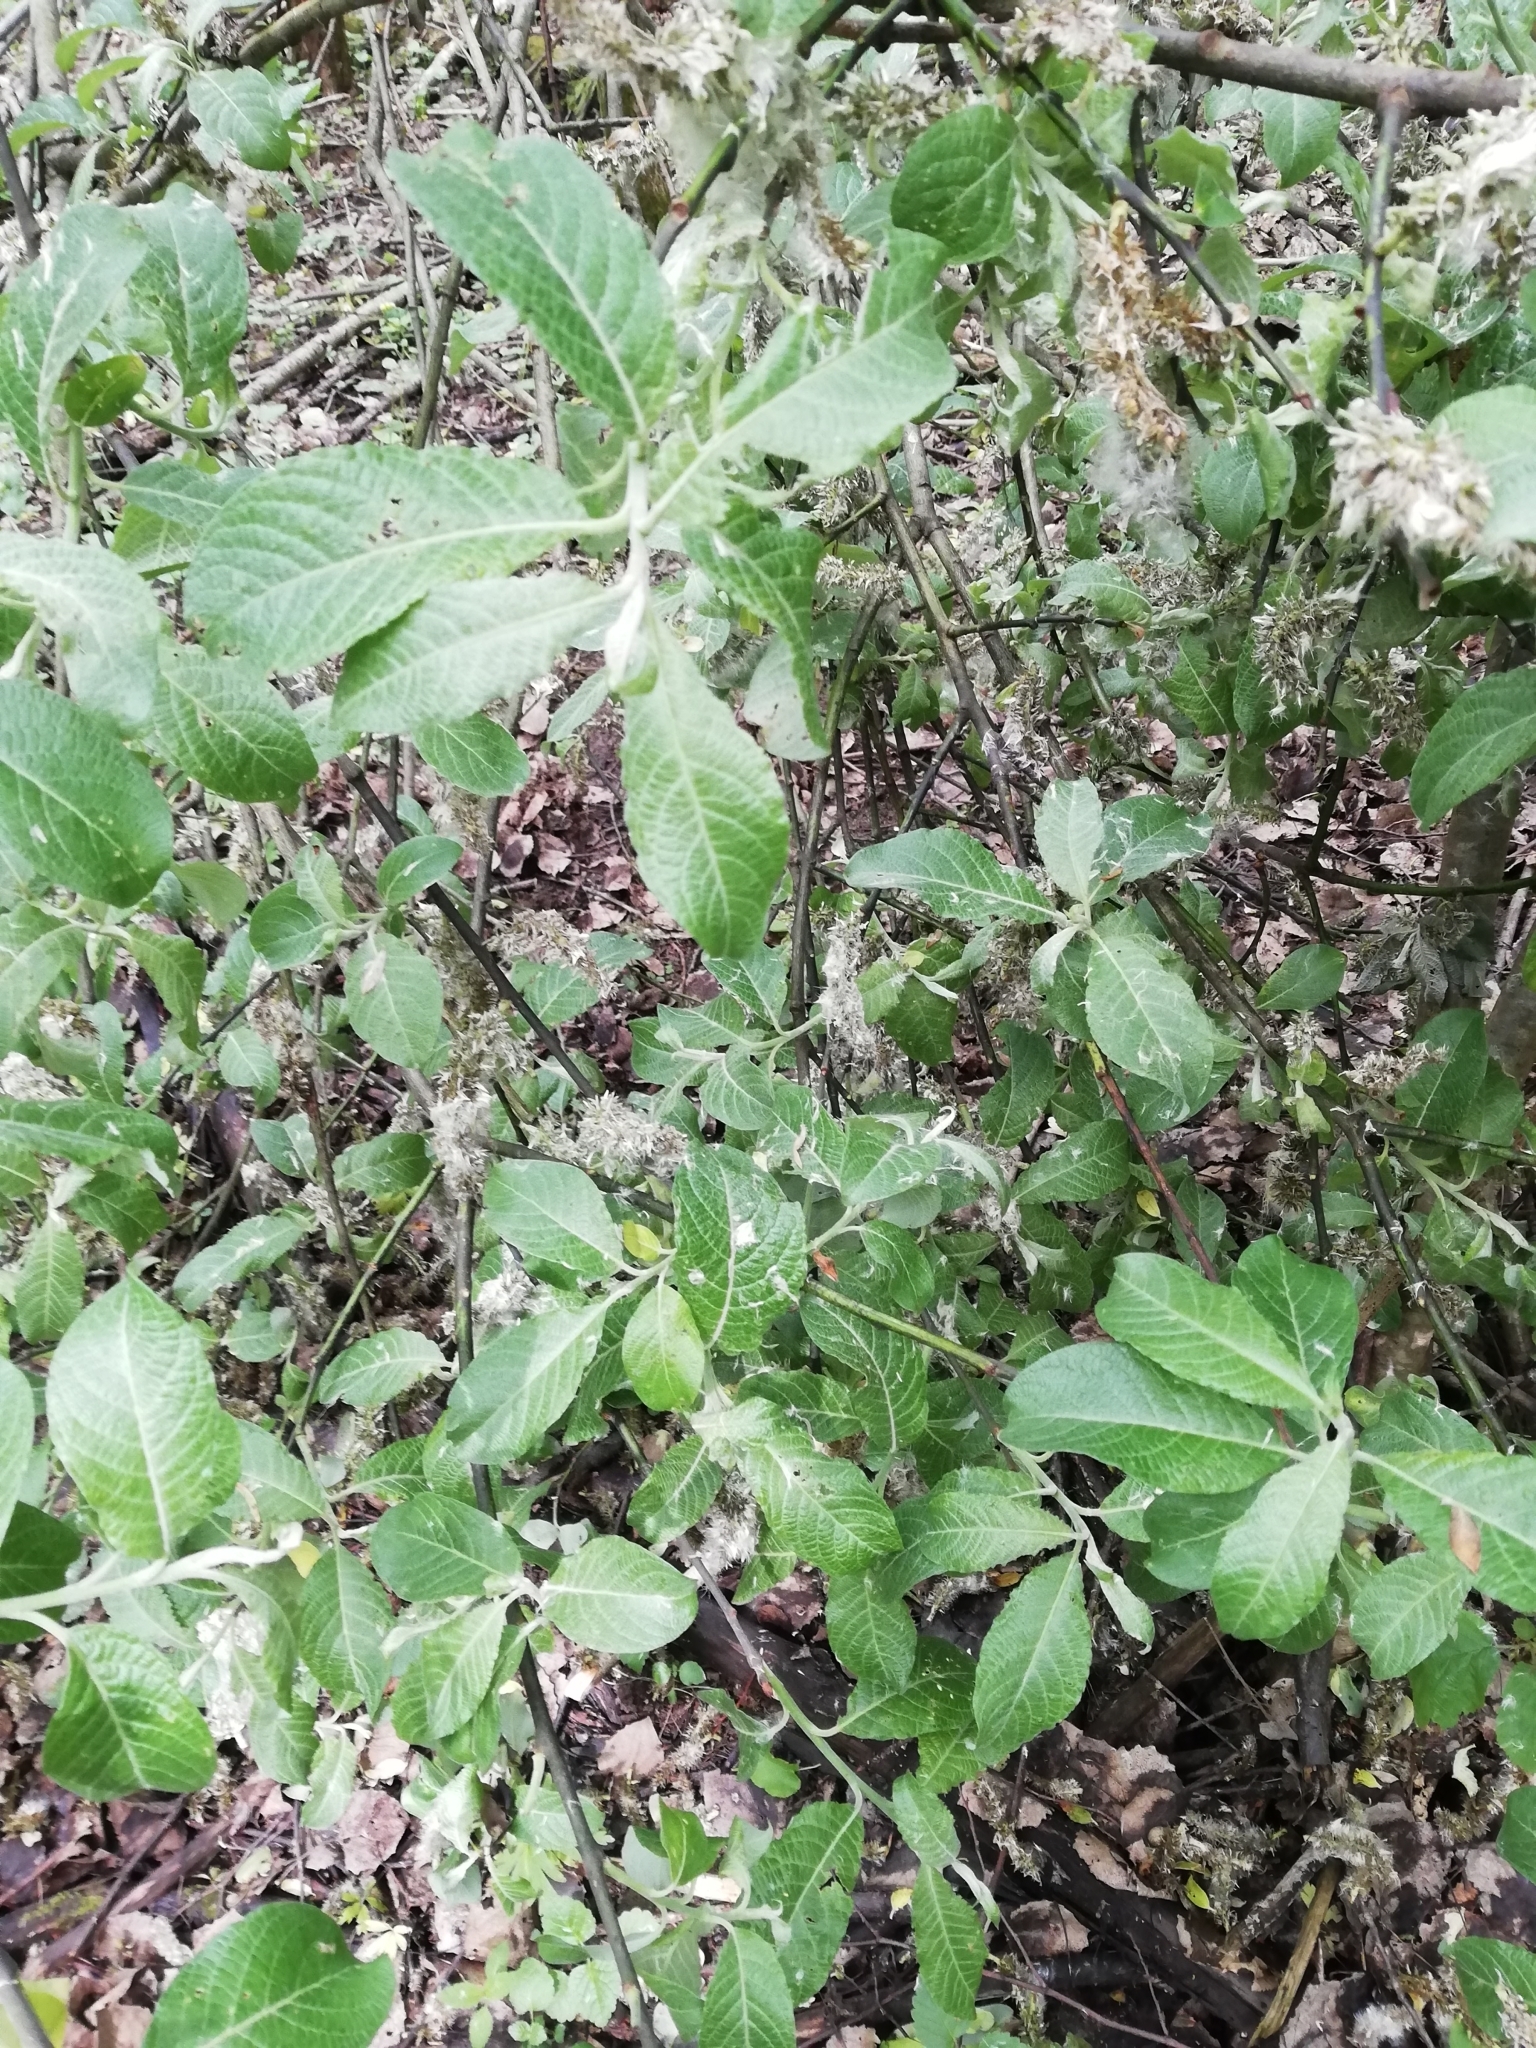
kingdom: Plantae
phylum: Tracheophyta
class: Magnoliopsida
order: Malpighiales
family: Salicaceae
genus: Salix
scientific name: Salix cinerea
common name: Common sallow
